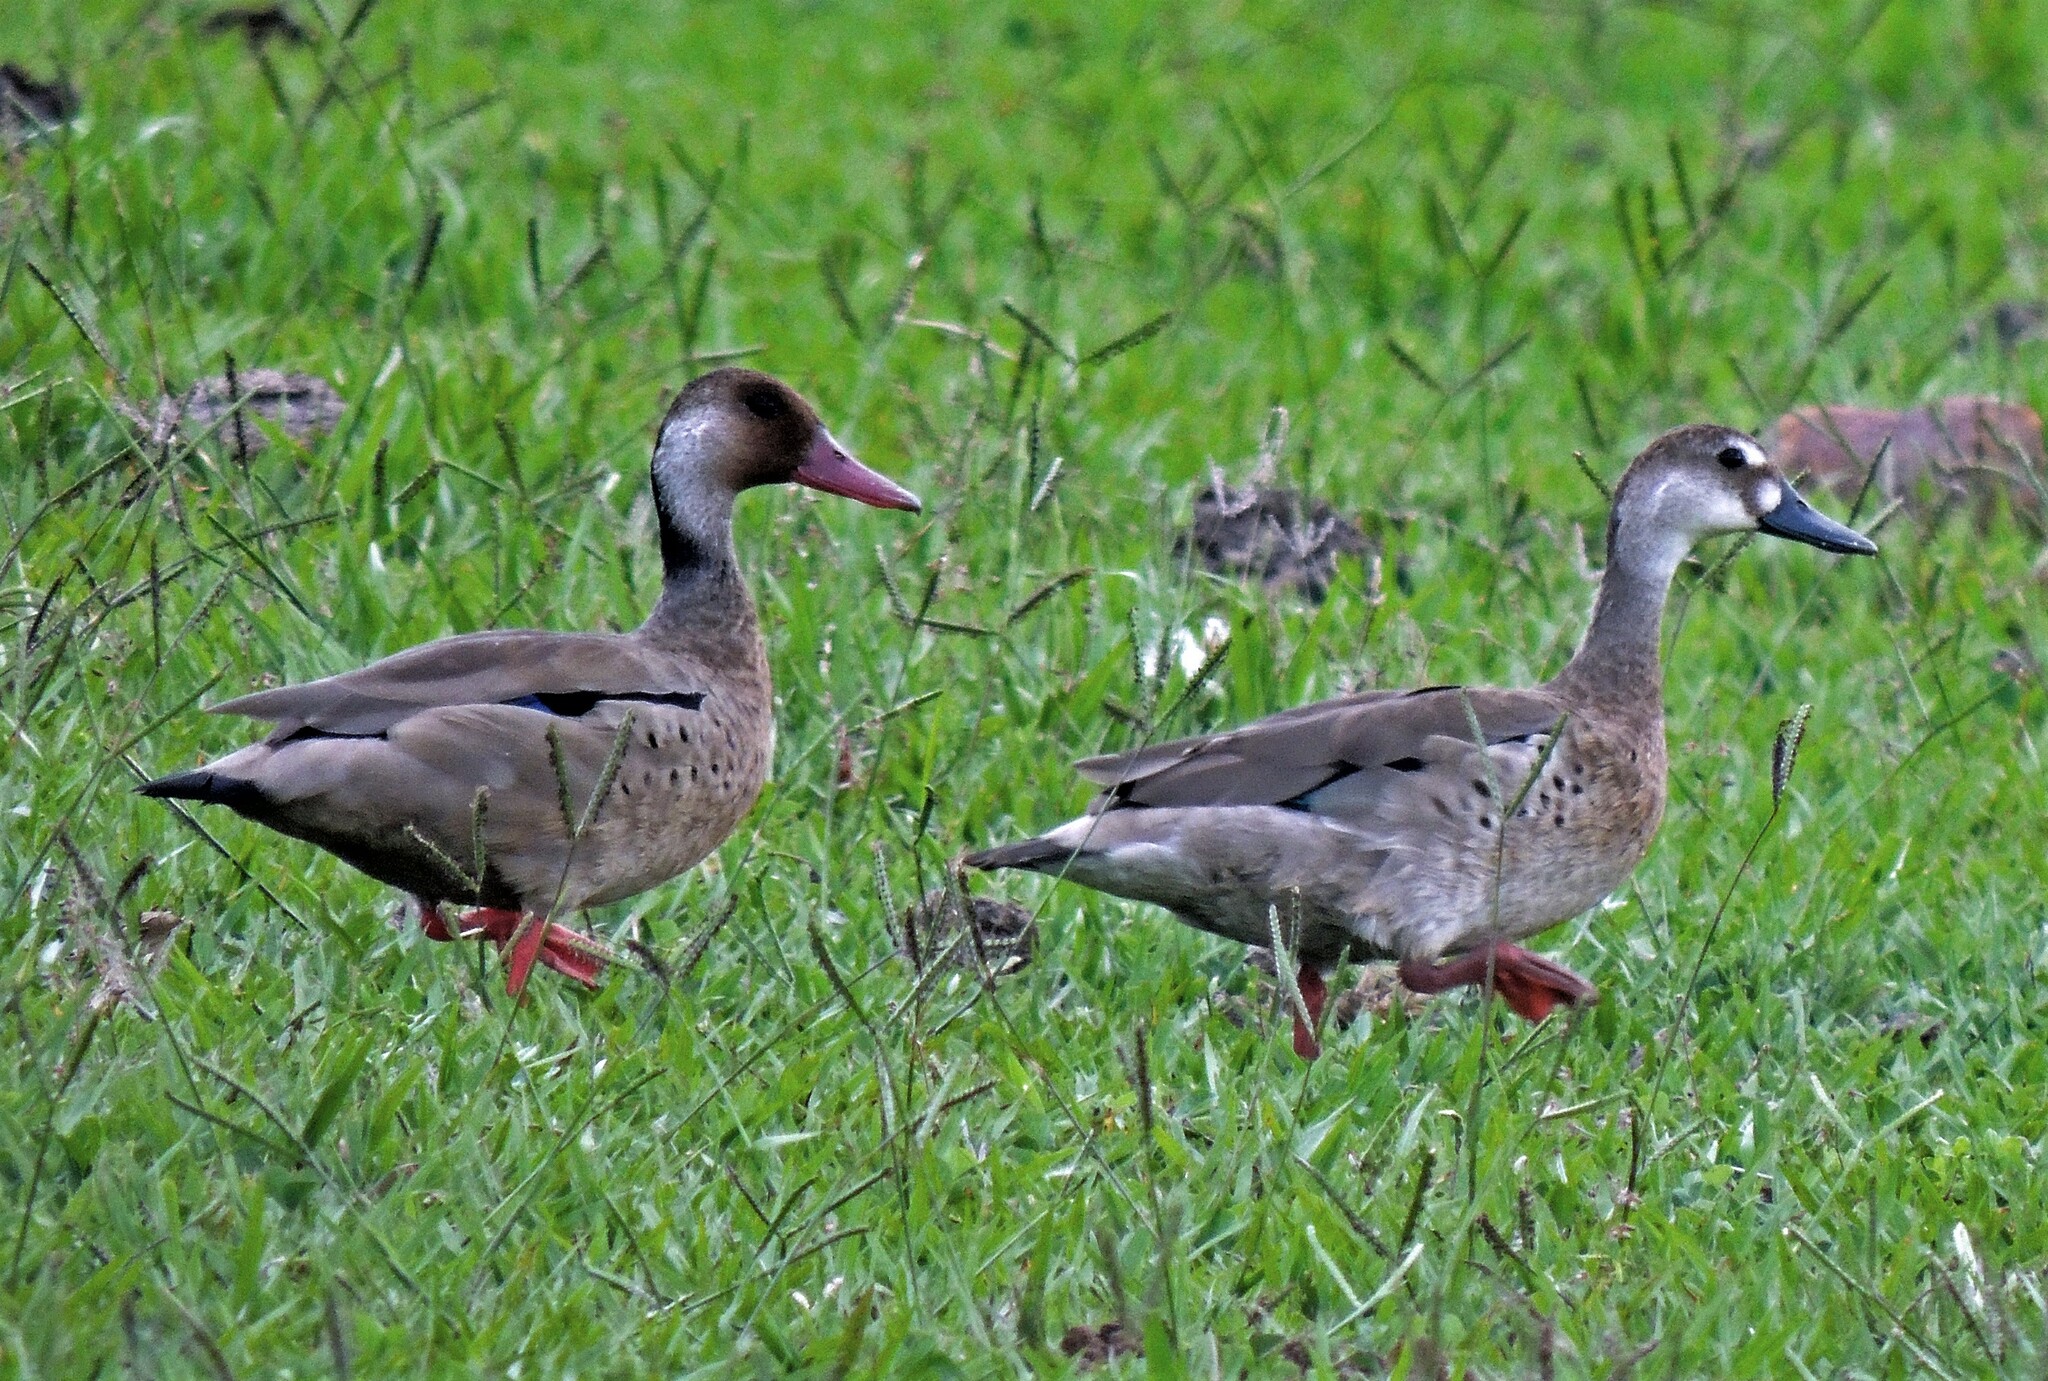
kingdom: Animalia
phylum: Chordata
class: Aves
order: Anseriformes
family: Anatidae
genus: Amazonetta
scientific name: Amazonetta brasiliensis
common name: Brazilian teal
